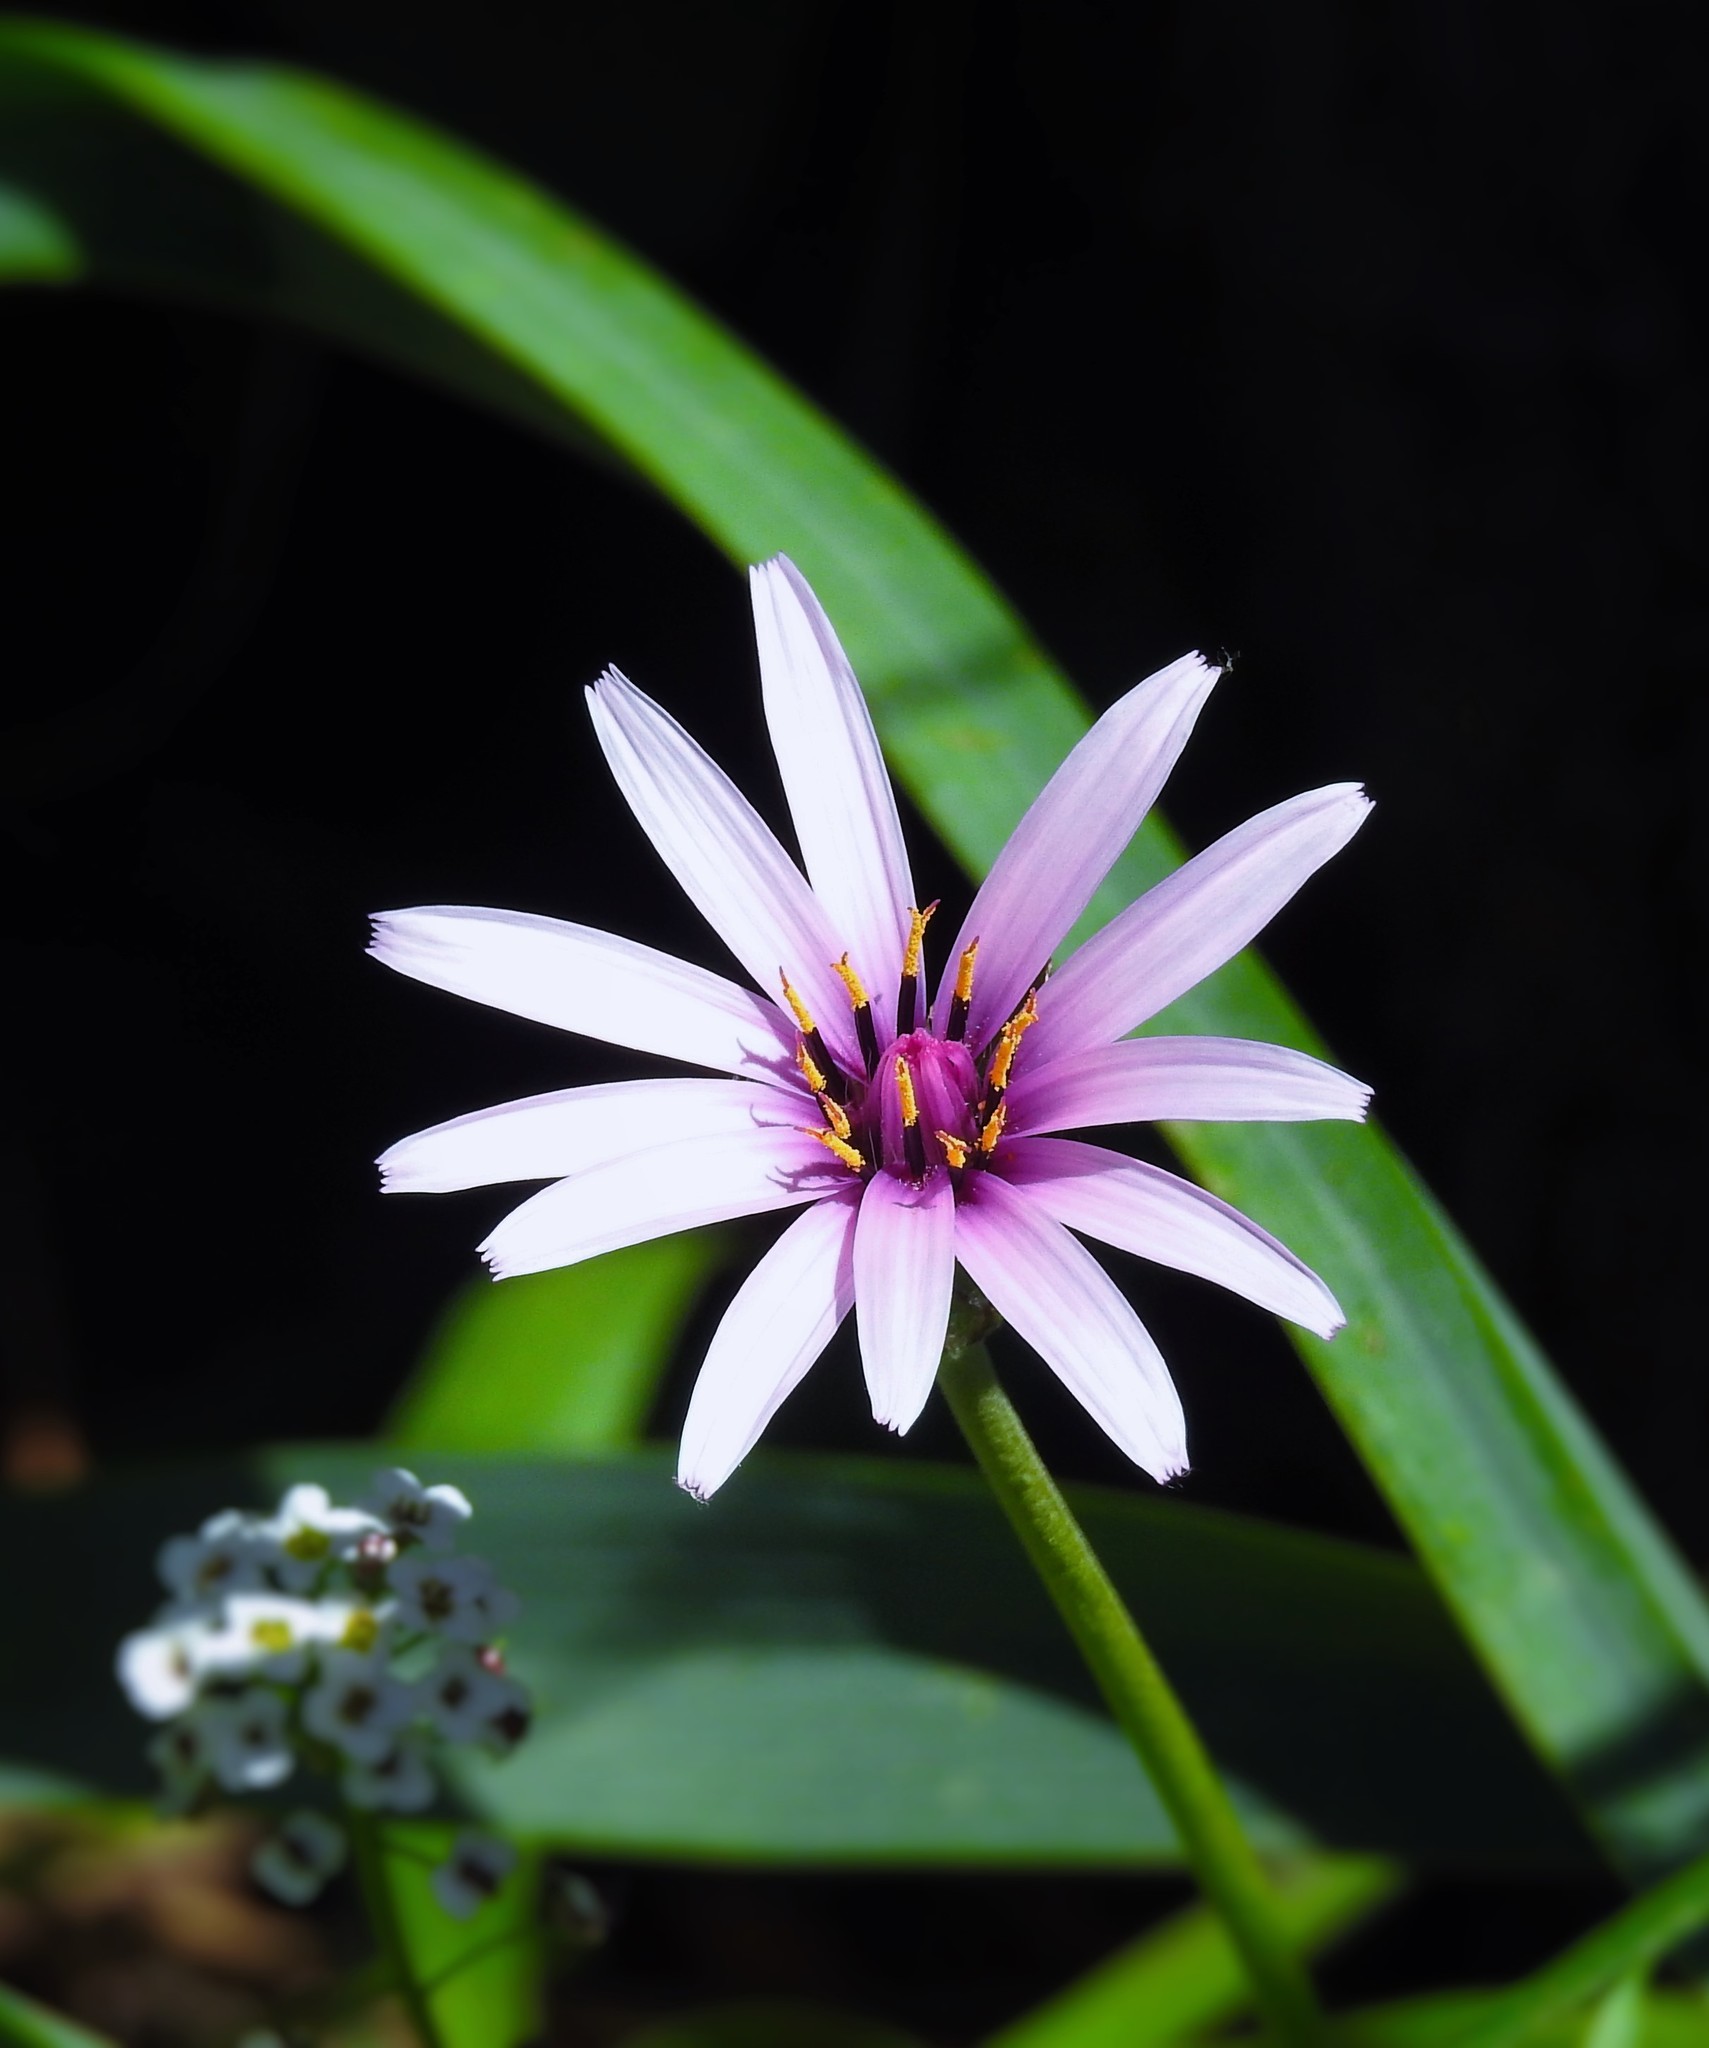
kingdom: Plantae
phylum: Tracheophyta
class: Magnoliopsida
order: Asterales
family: Asteraceae
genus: Pseudopodospermum
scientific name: Pseudopodospermum undulatum
